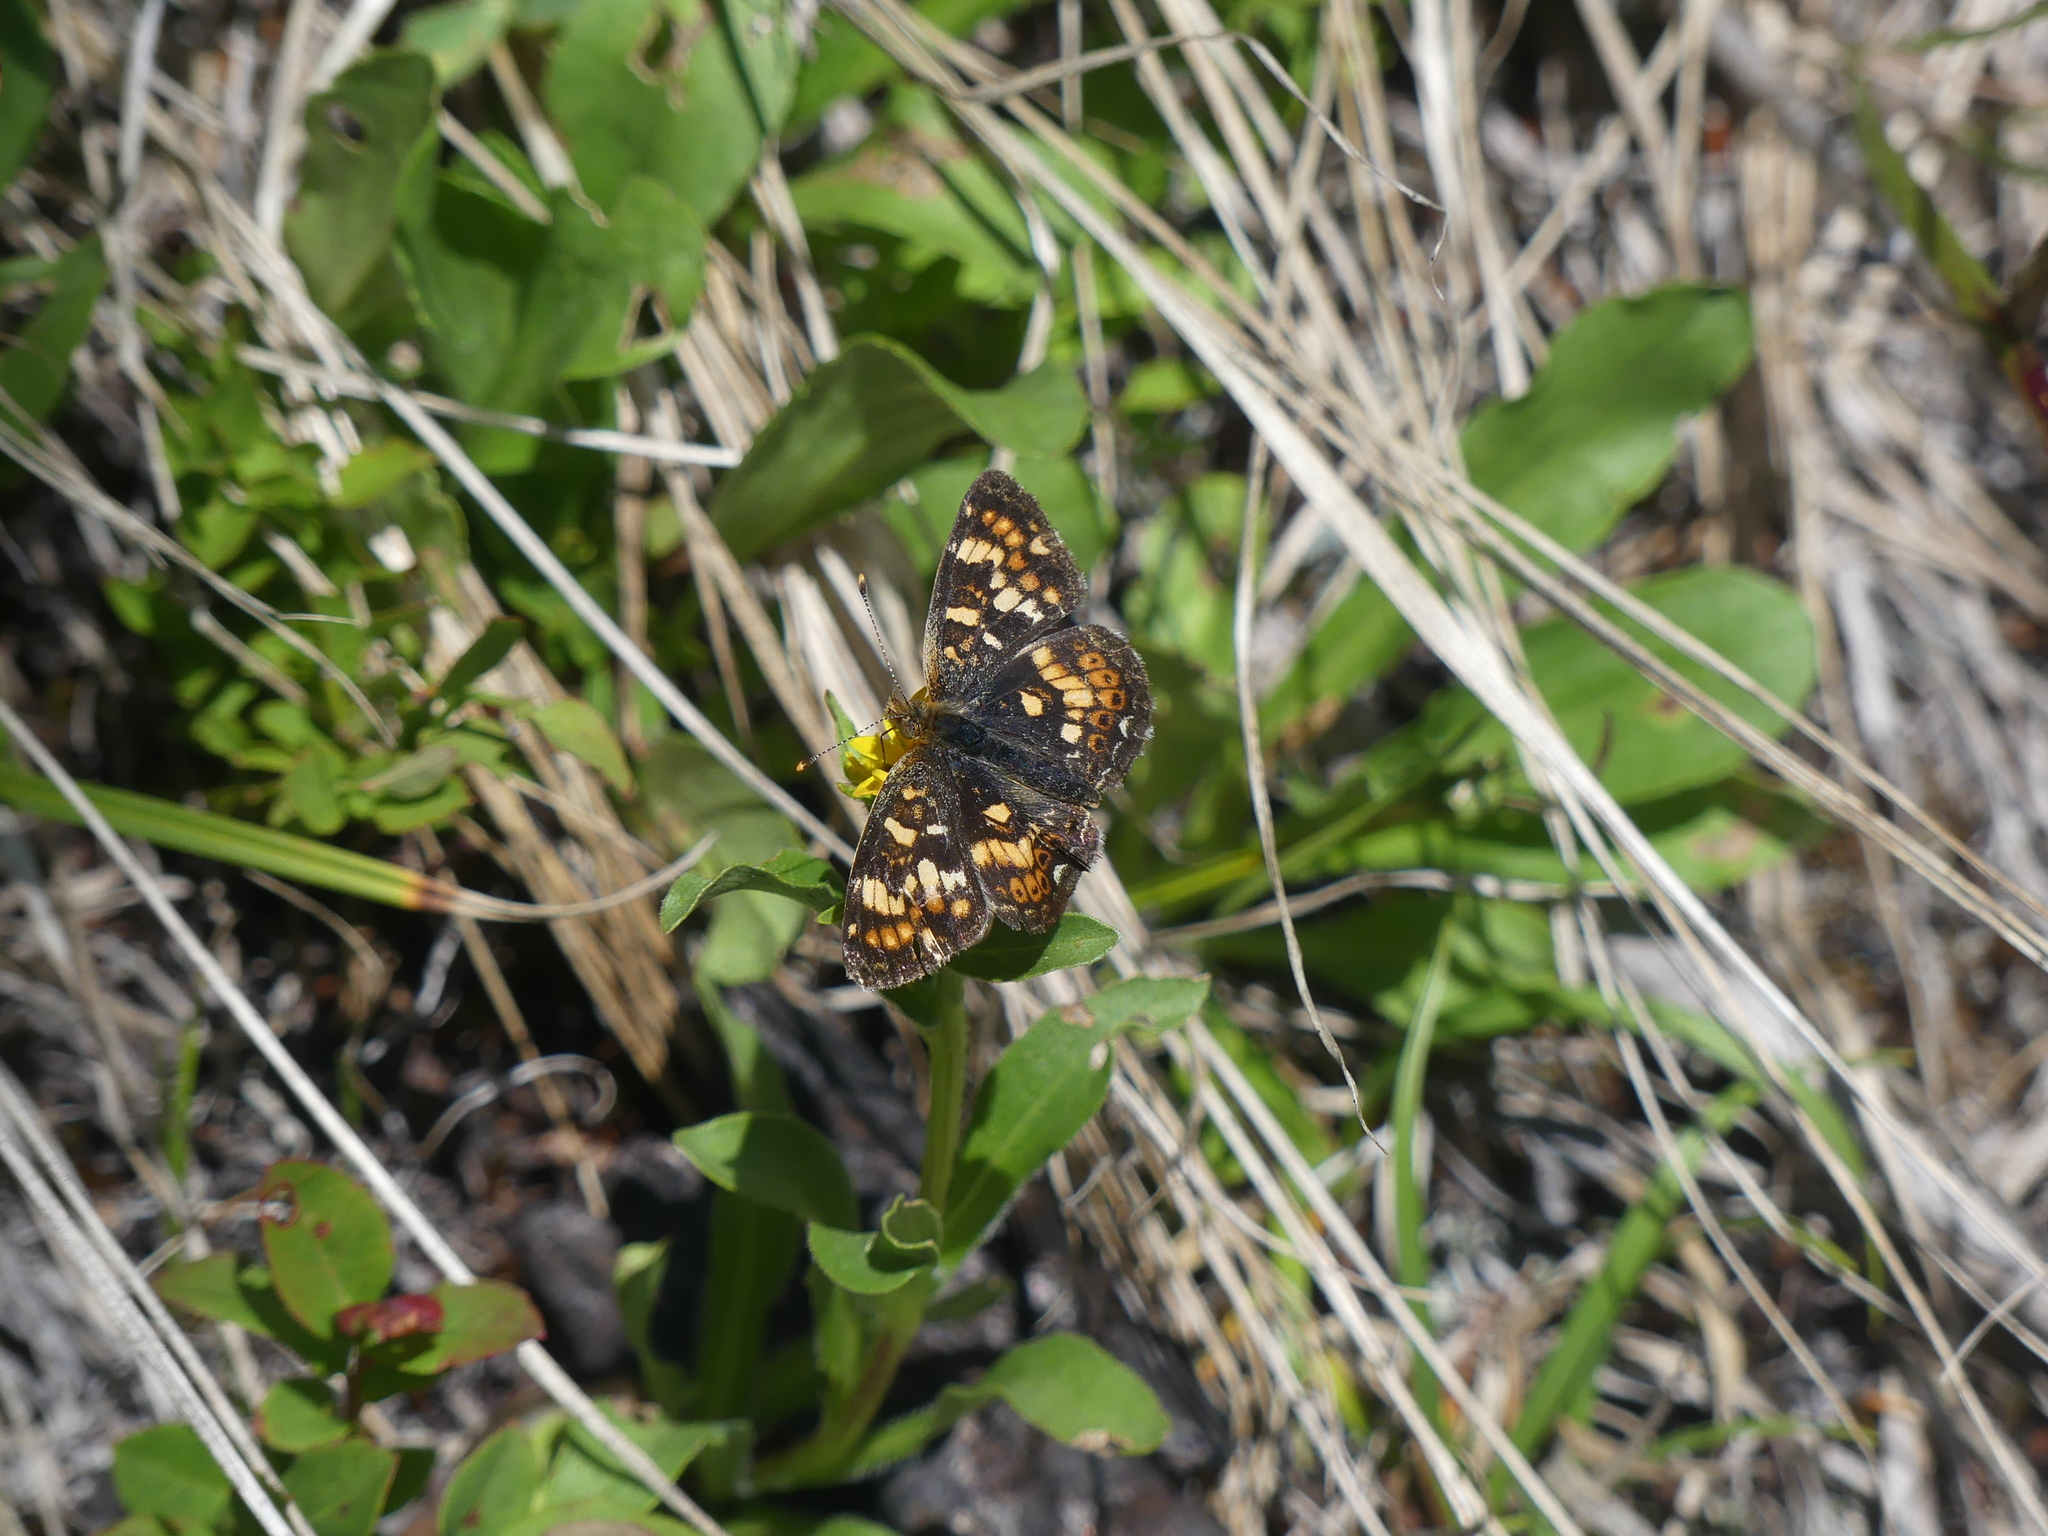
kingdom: Animalia
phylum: Arthropoda
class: Insecta
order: Lepidoptera
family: Nymphalidae
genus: Phyciodes
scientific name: Phyciodes tharos
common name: Pearl crescent
